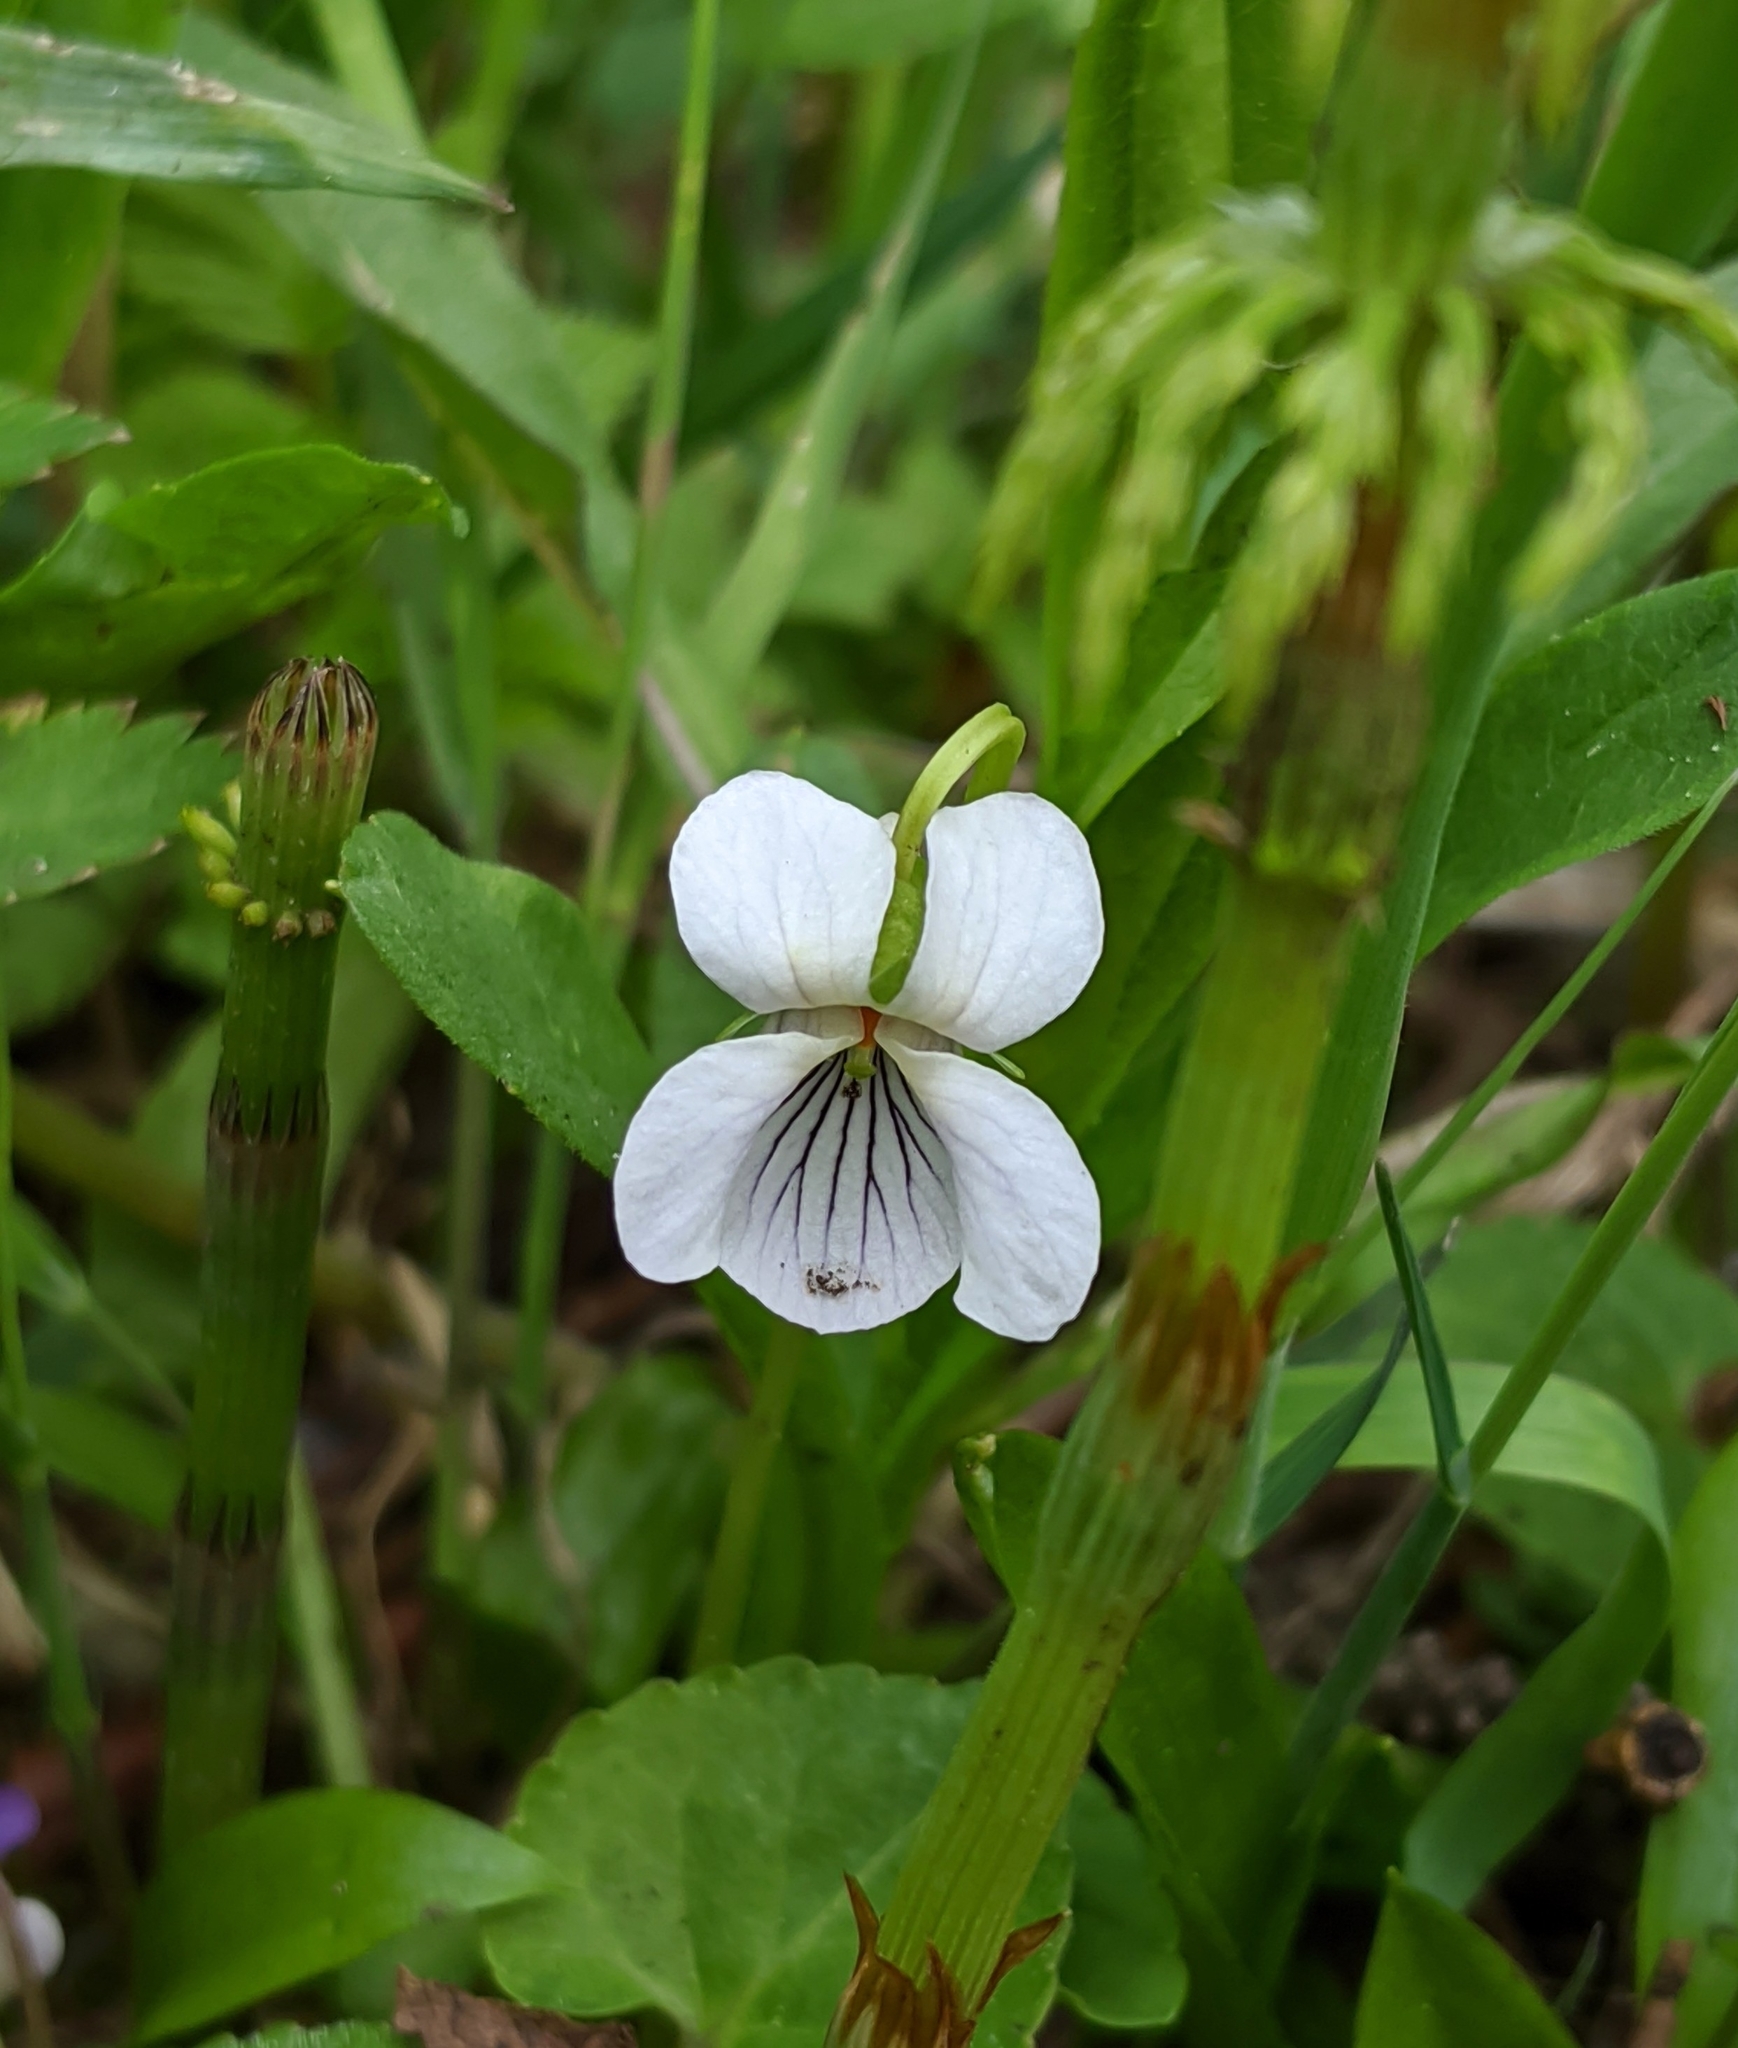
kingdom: Plantae
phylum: Tracheophyta
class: Magnoliopsida
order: Malpighiales
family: Violaceae
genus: Viola
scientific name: Viola minuscula
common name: Northern white violet
